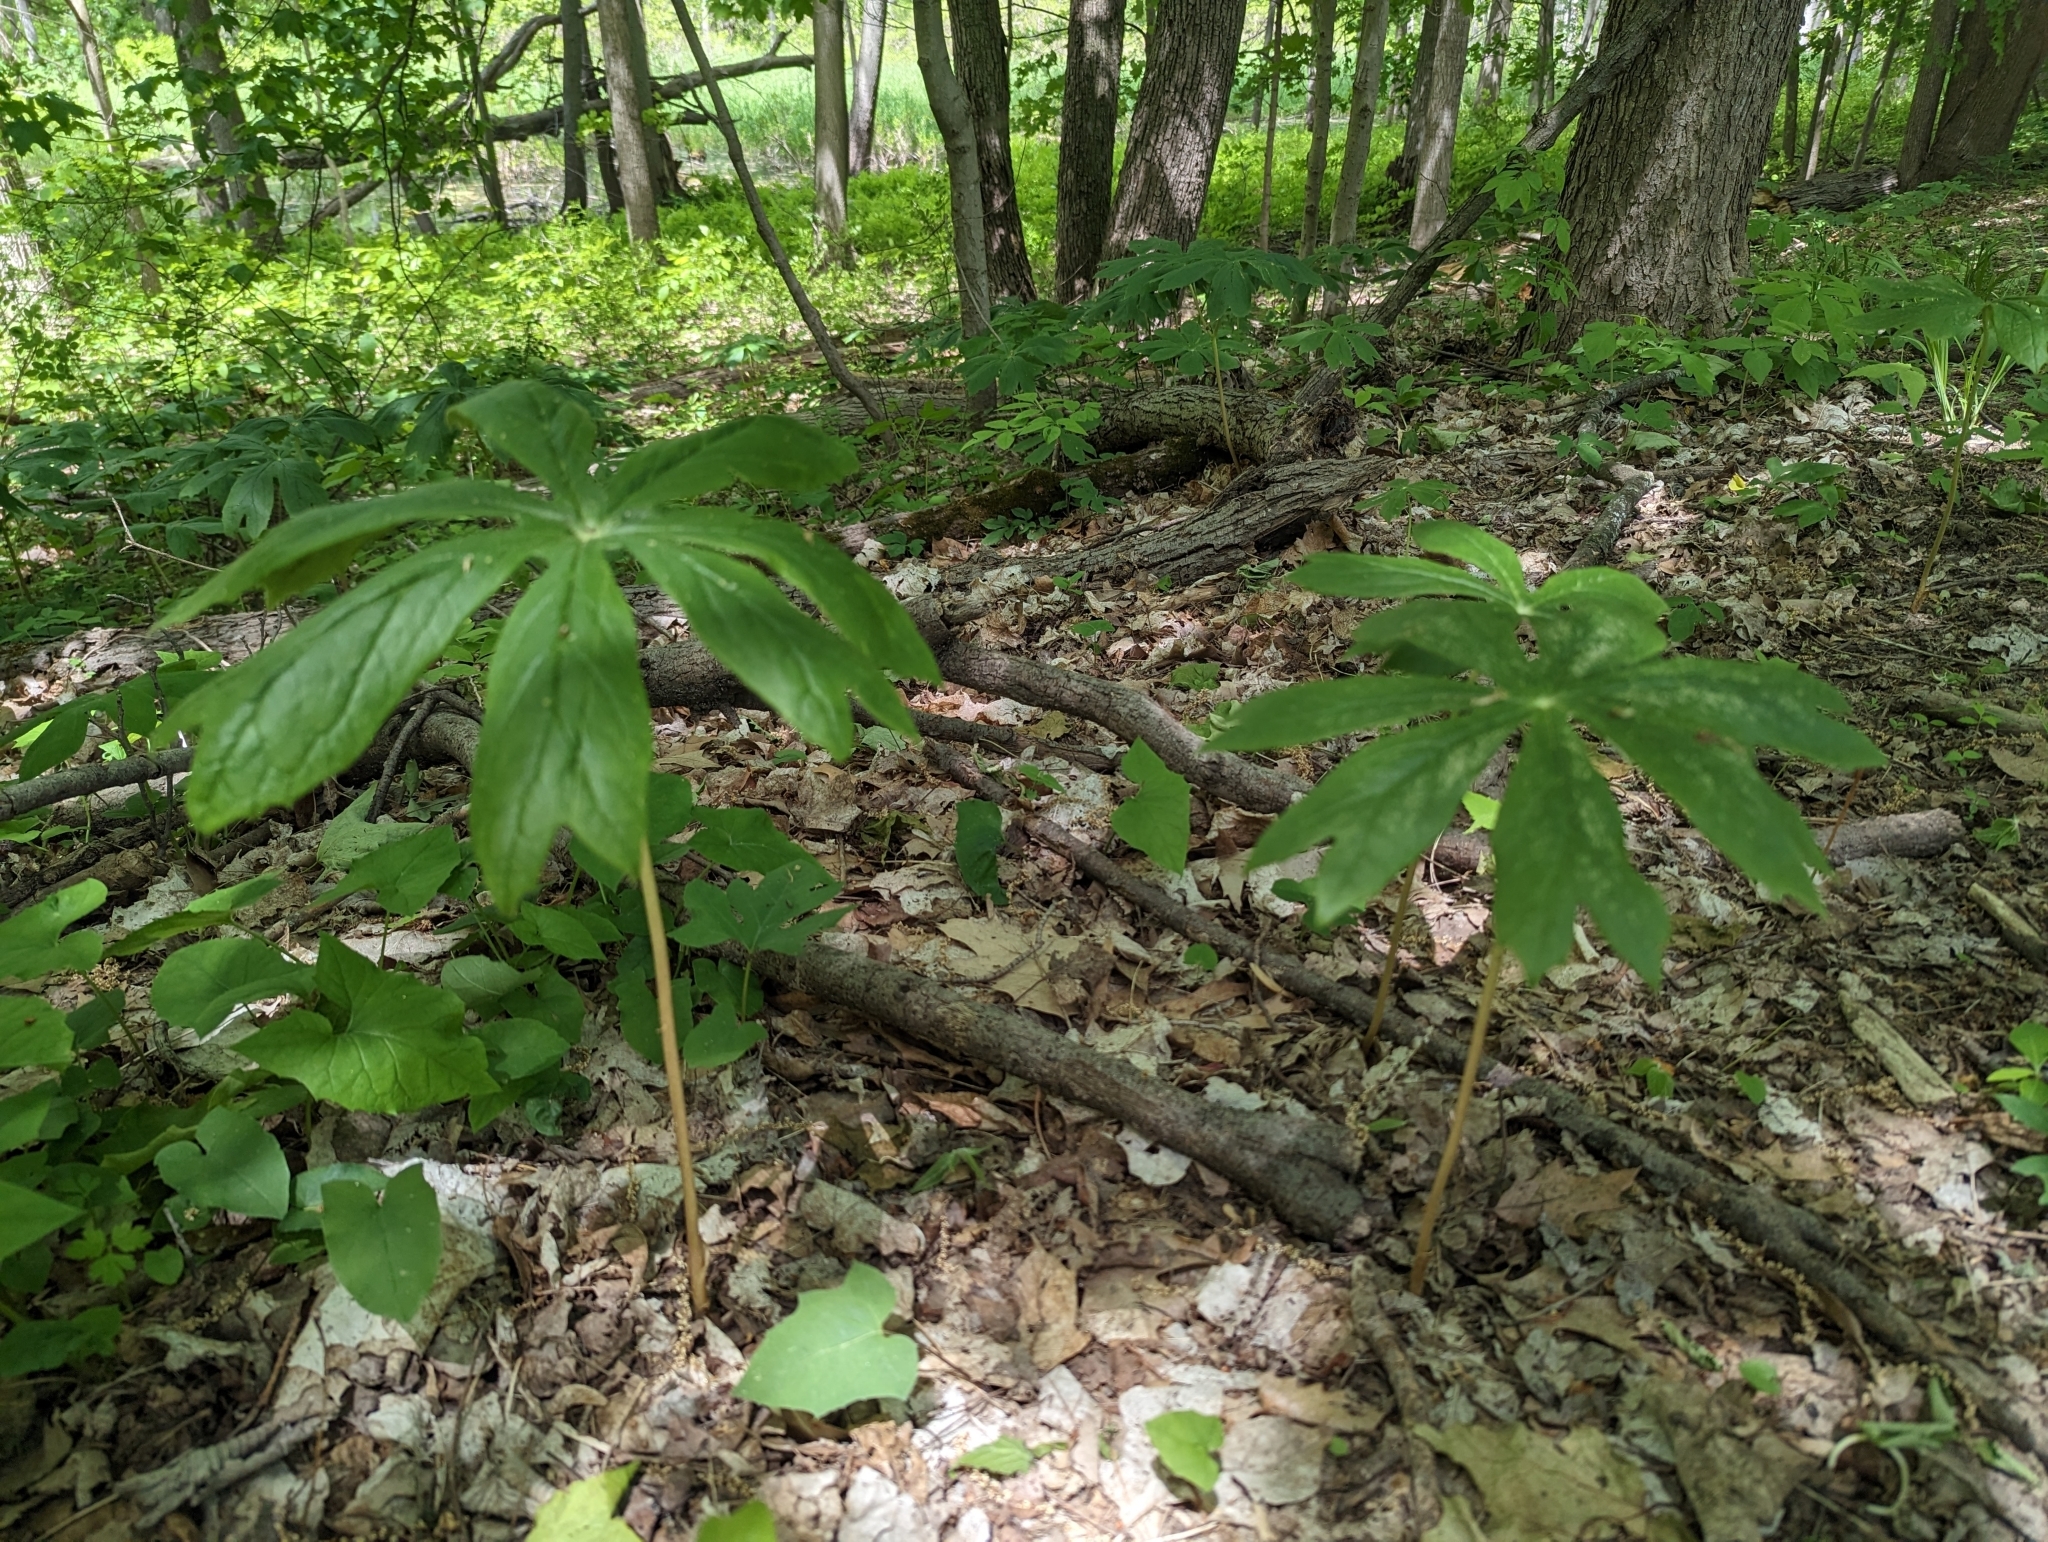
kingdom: Plantae
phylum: Tracheophyta
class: Magnoliopsida
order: Ranunculales
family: Berberidaceae
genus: Podophyllum
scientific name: Podophyllum peltatum
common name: Wild mandrake
